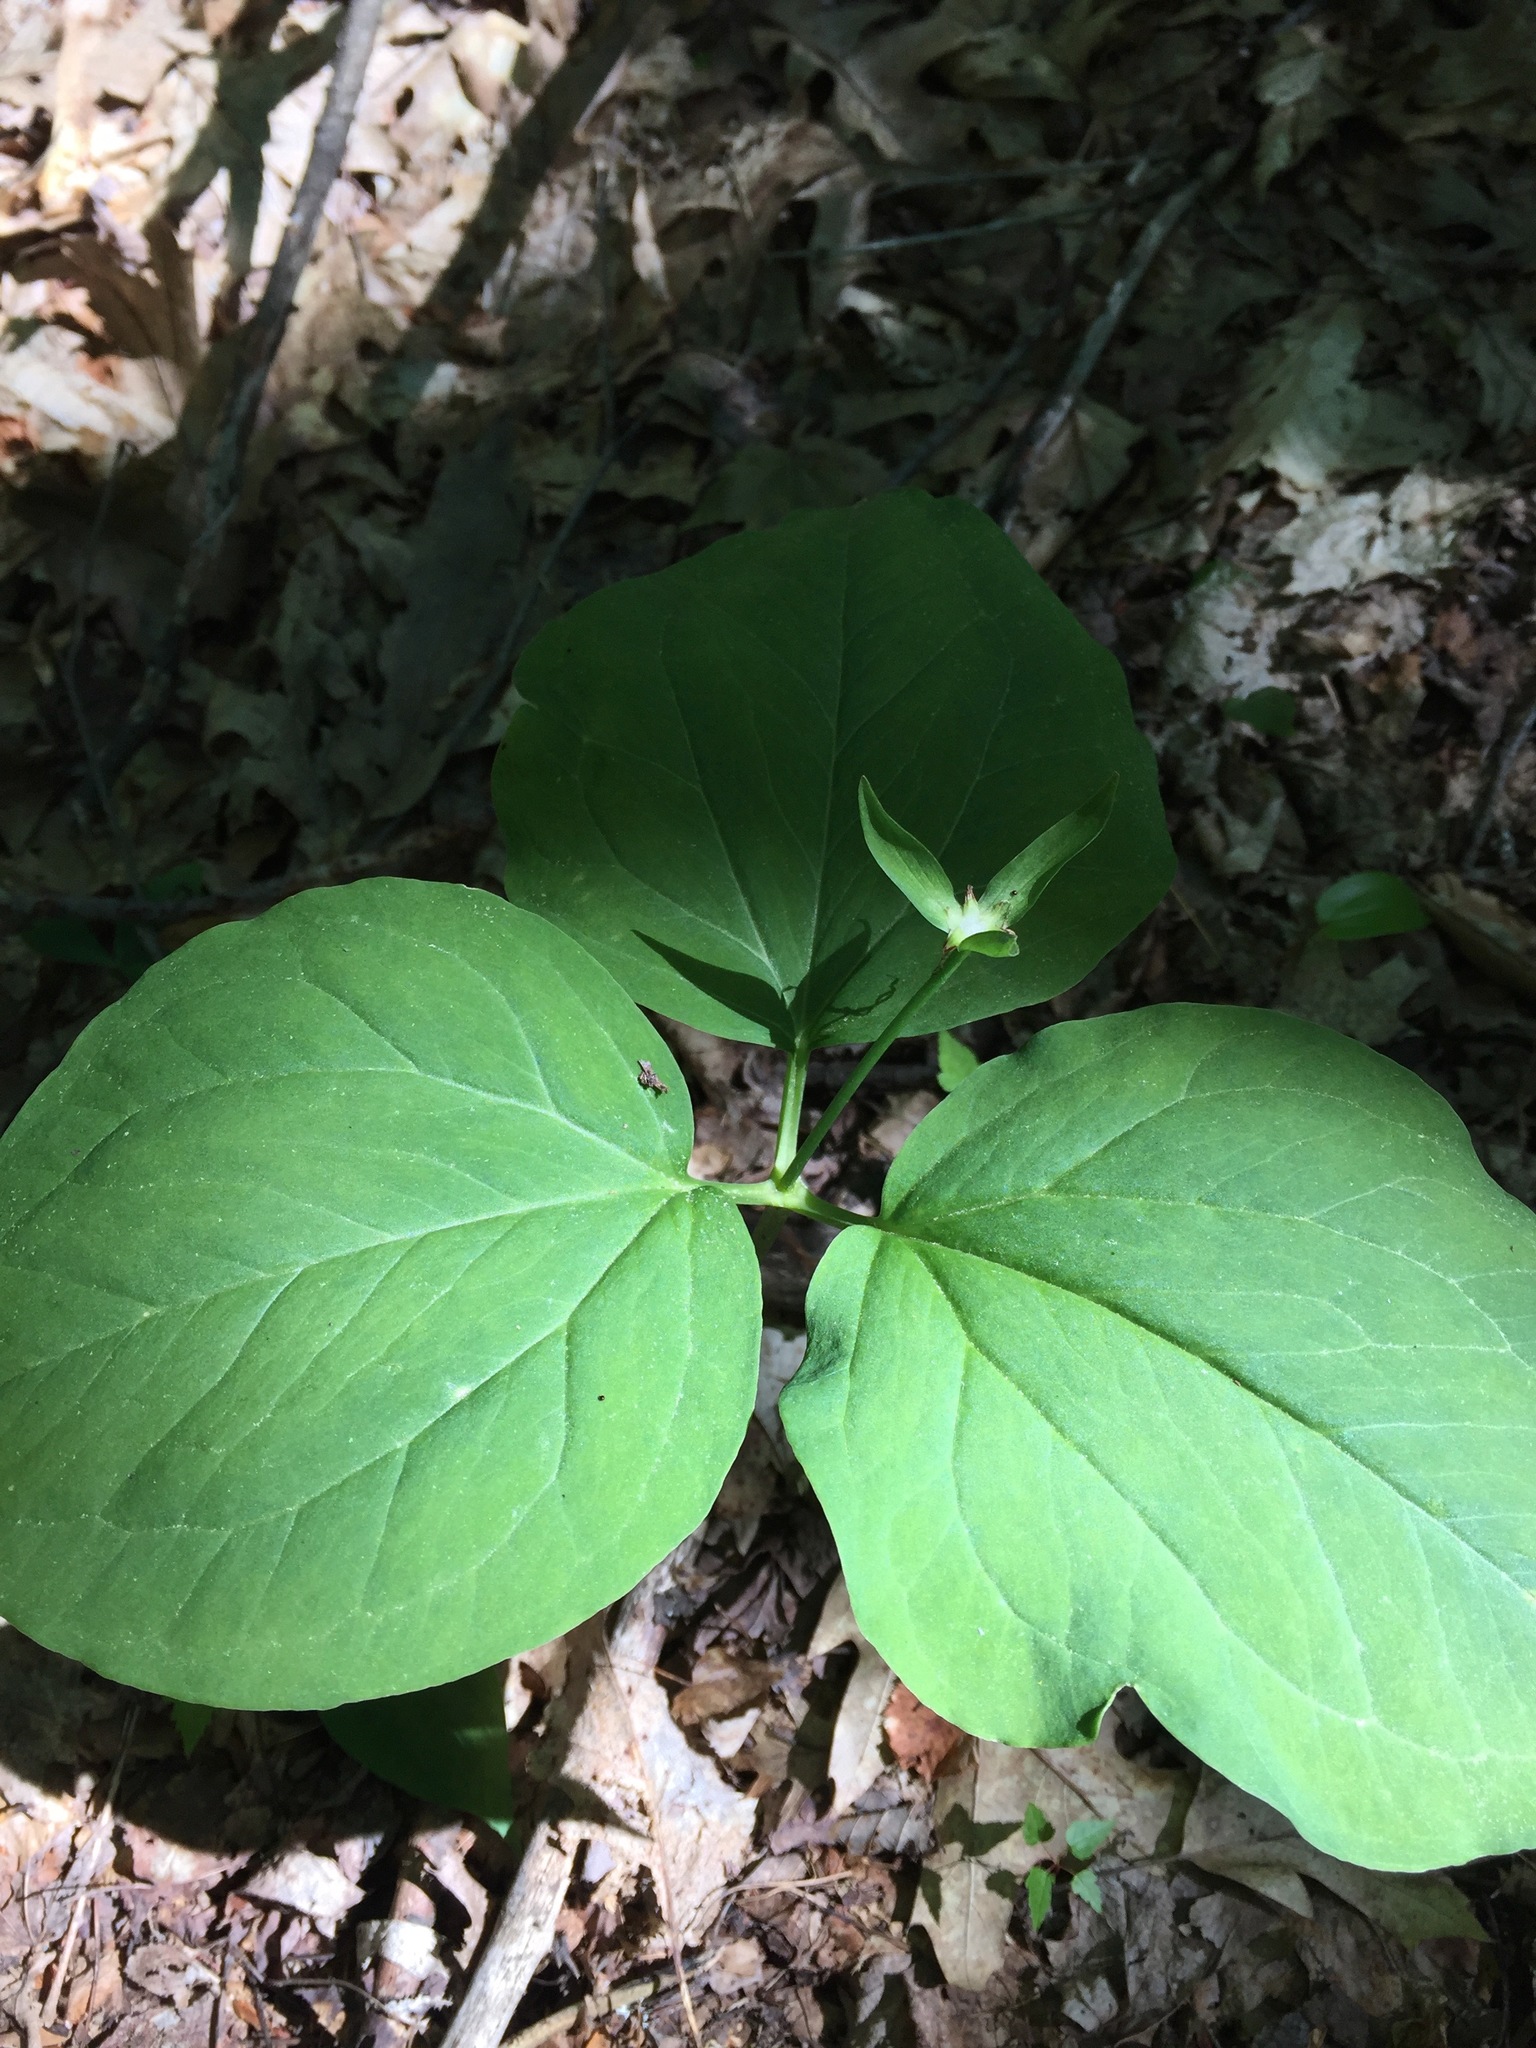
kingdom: Plantae
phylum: Tracheophyta
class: Liliopsida
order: Liliales
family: Melanthiaceae
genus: Trillium
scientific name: Trillium undulatum
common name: Paint trillium
